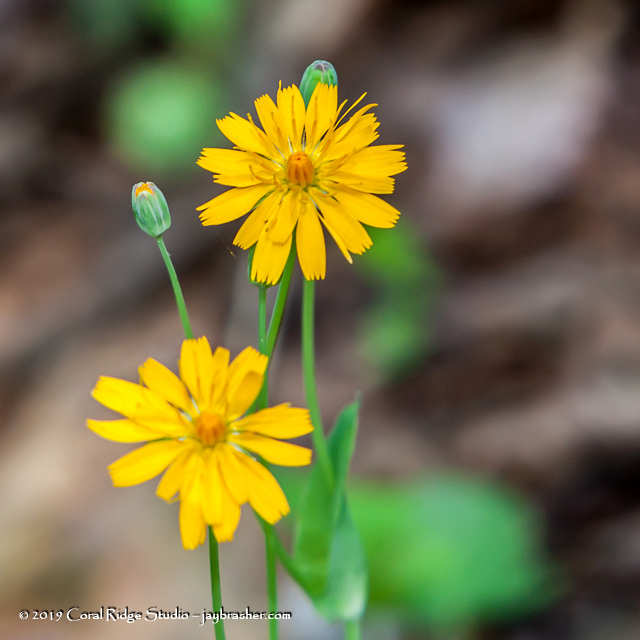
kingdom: Plantae
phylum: Tracheophyta
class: Magnoliopsida
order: Asterales
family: Asteraceae
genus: Krigia
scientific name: Krigia biflora
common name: Orange dwarf-dandelion
